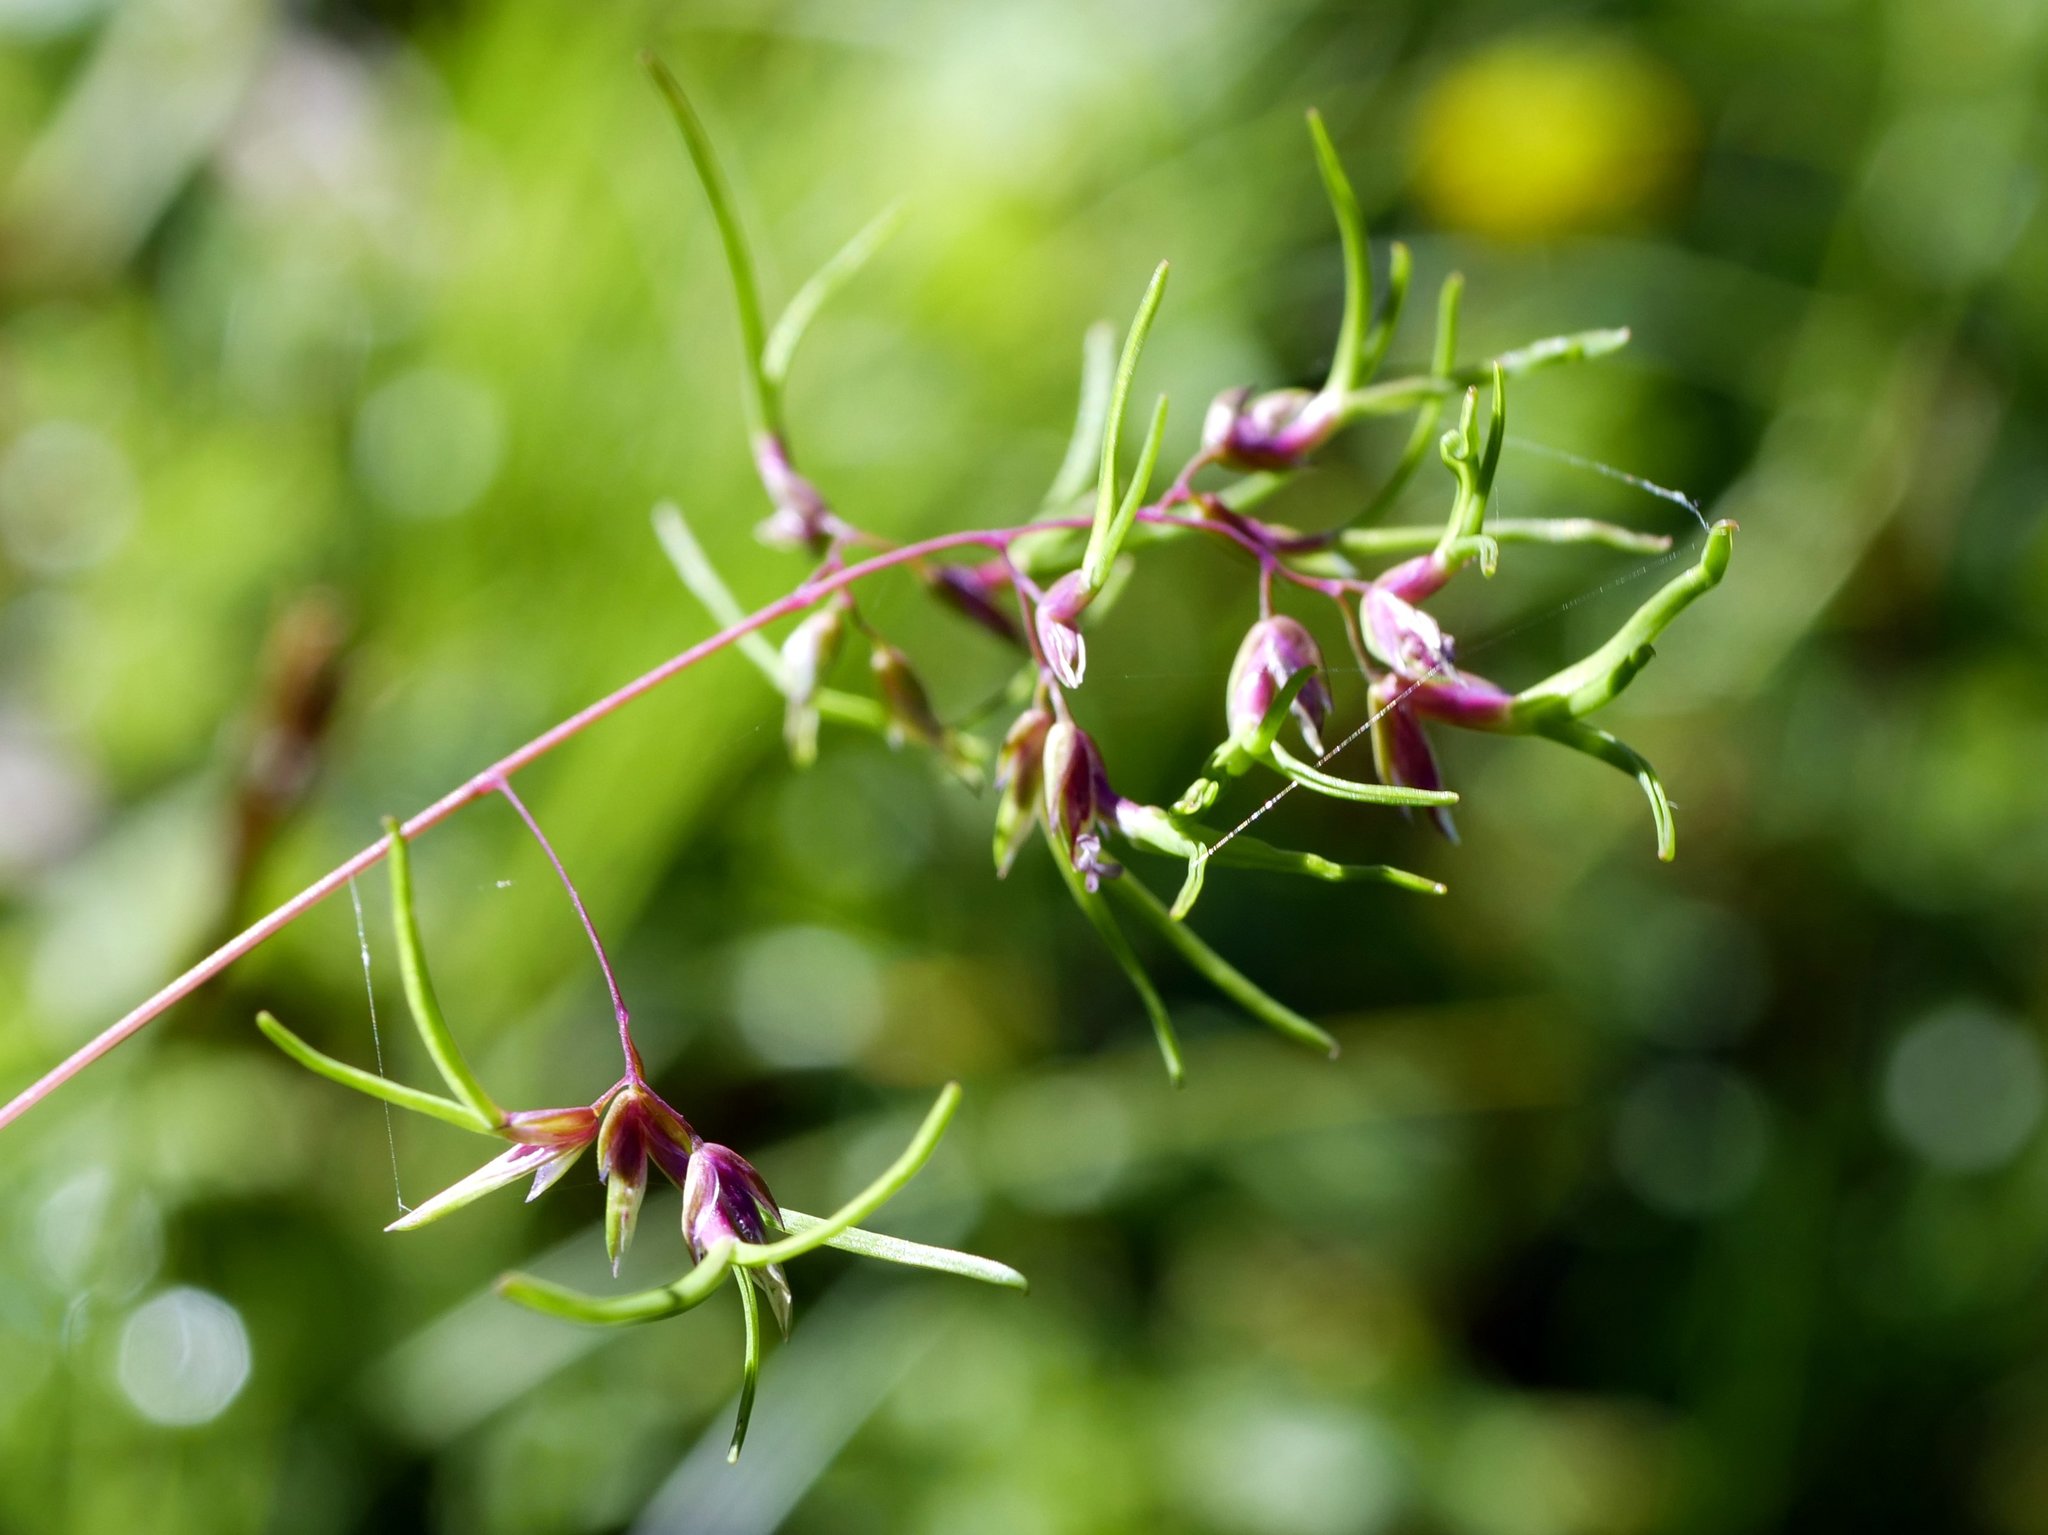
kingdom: Plantae
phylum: Tracheophyta
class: Liliopsida
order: Poales
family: Poaceae
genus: Poa
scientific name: Poa alpina
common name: Alpine bluegrass
